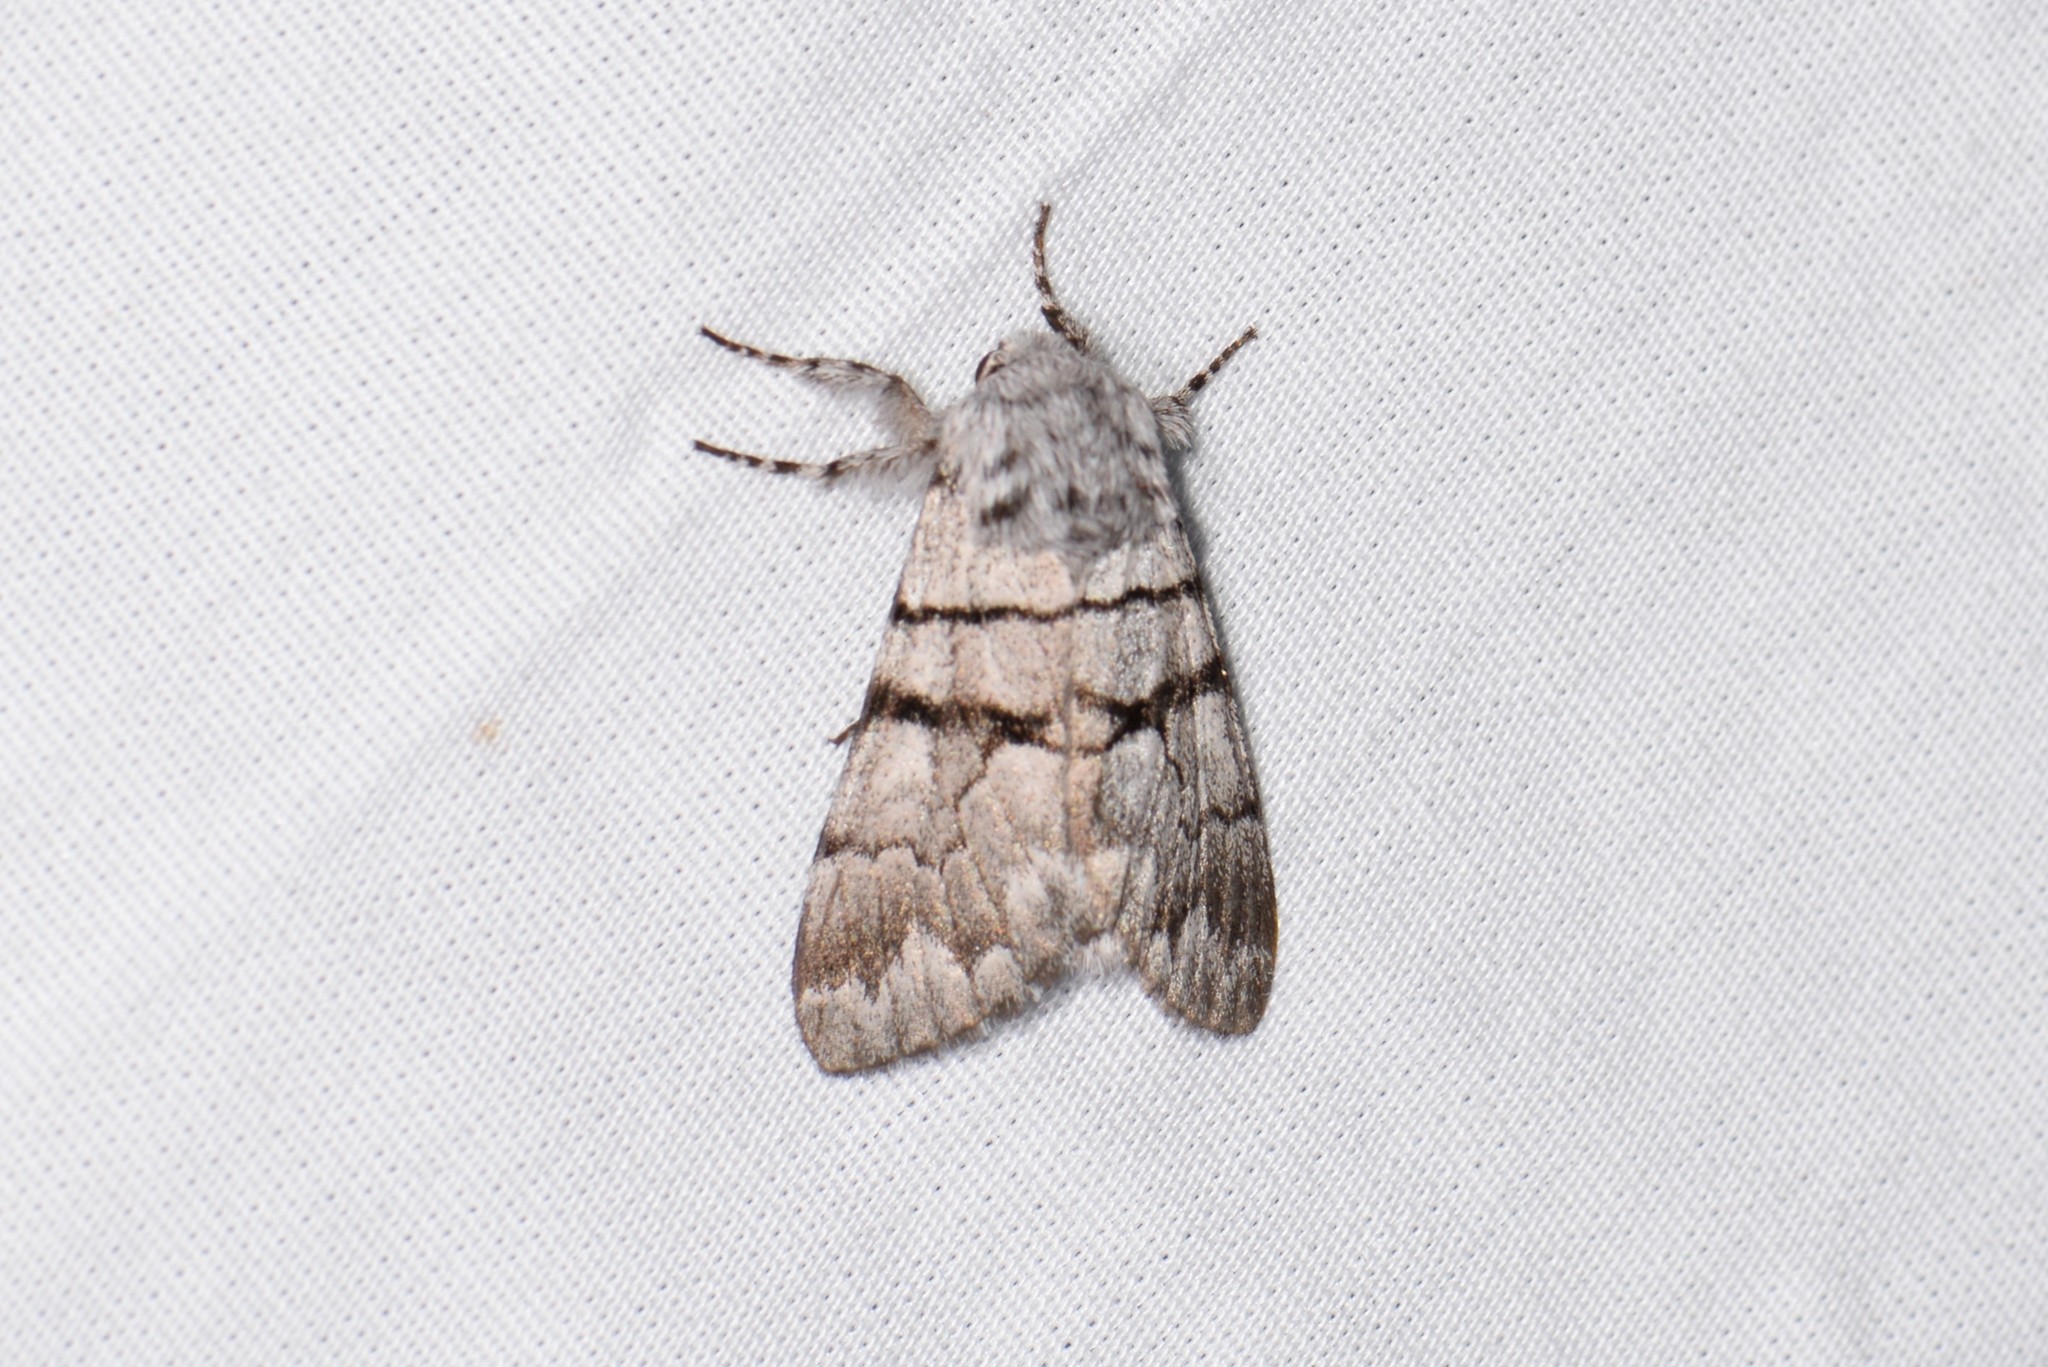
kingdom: Animalia
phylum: Arthropoda
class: Insecta
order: Lepidoptera
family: Noctuidae
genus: Panthea
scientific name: Panthea furcilla
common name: Eastern panthea moth
